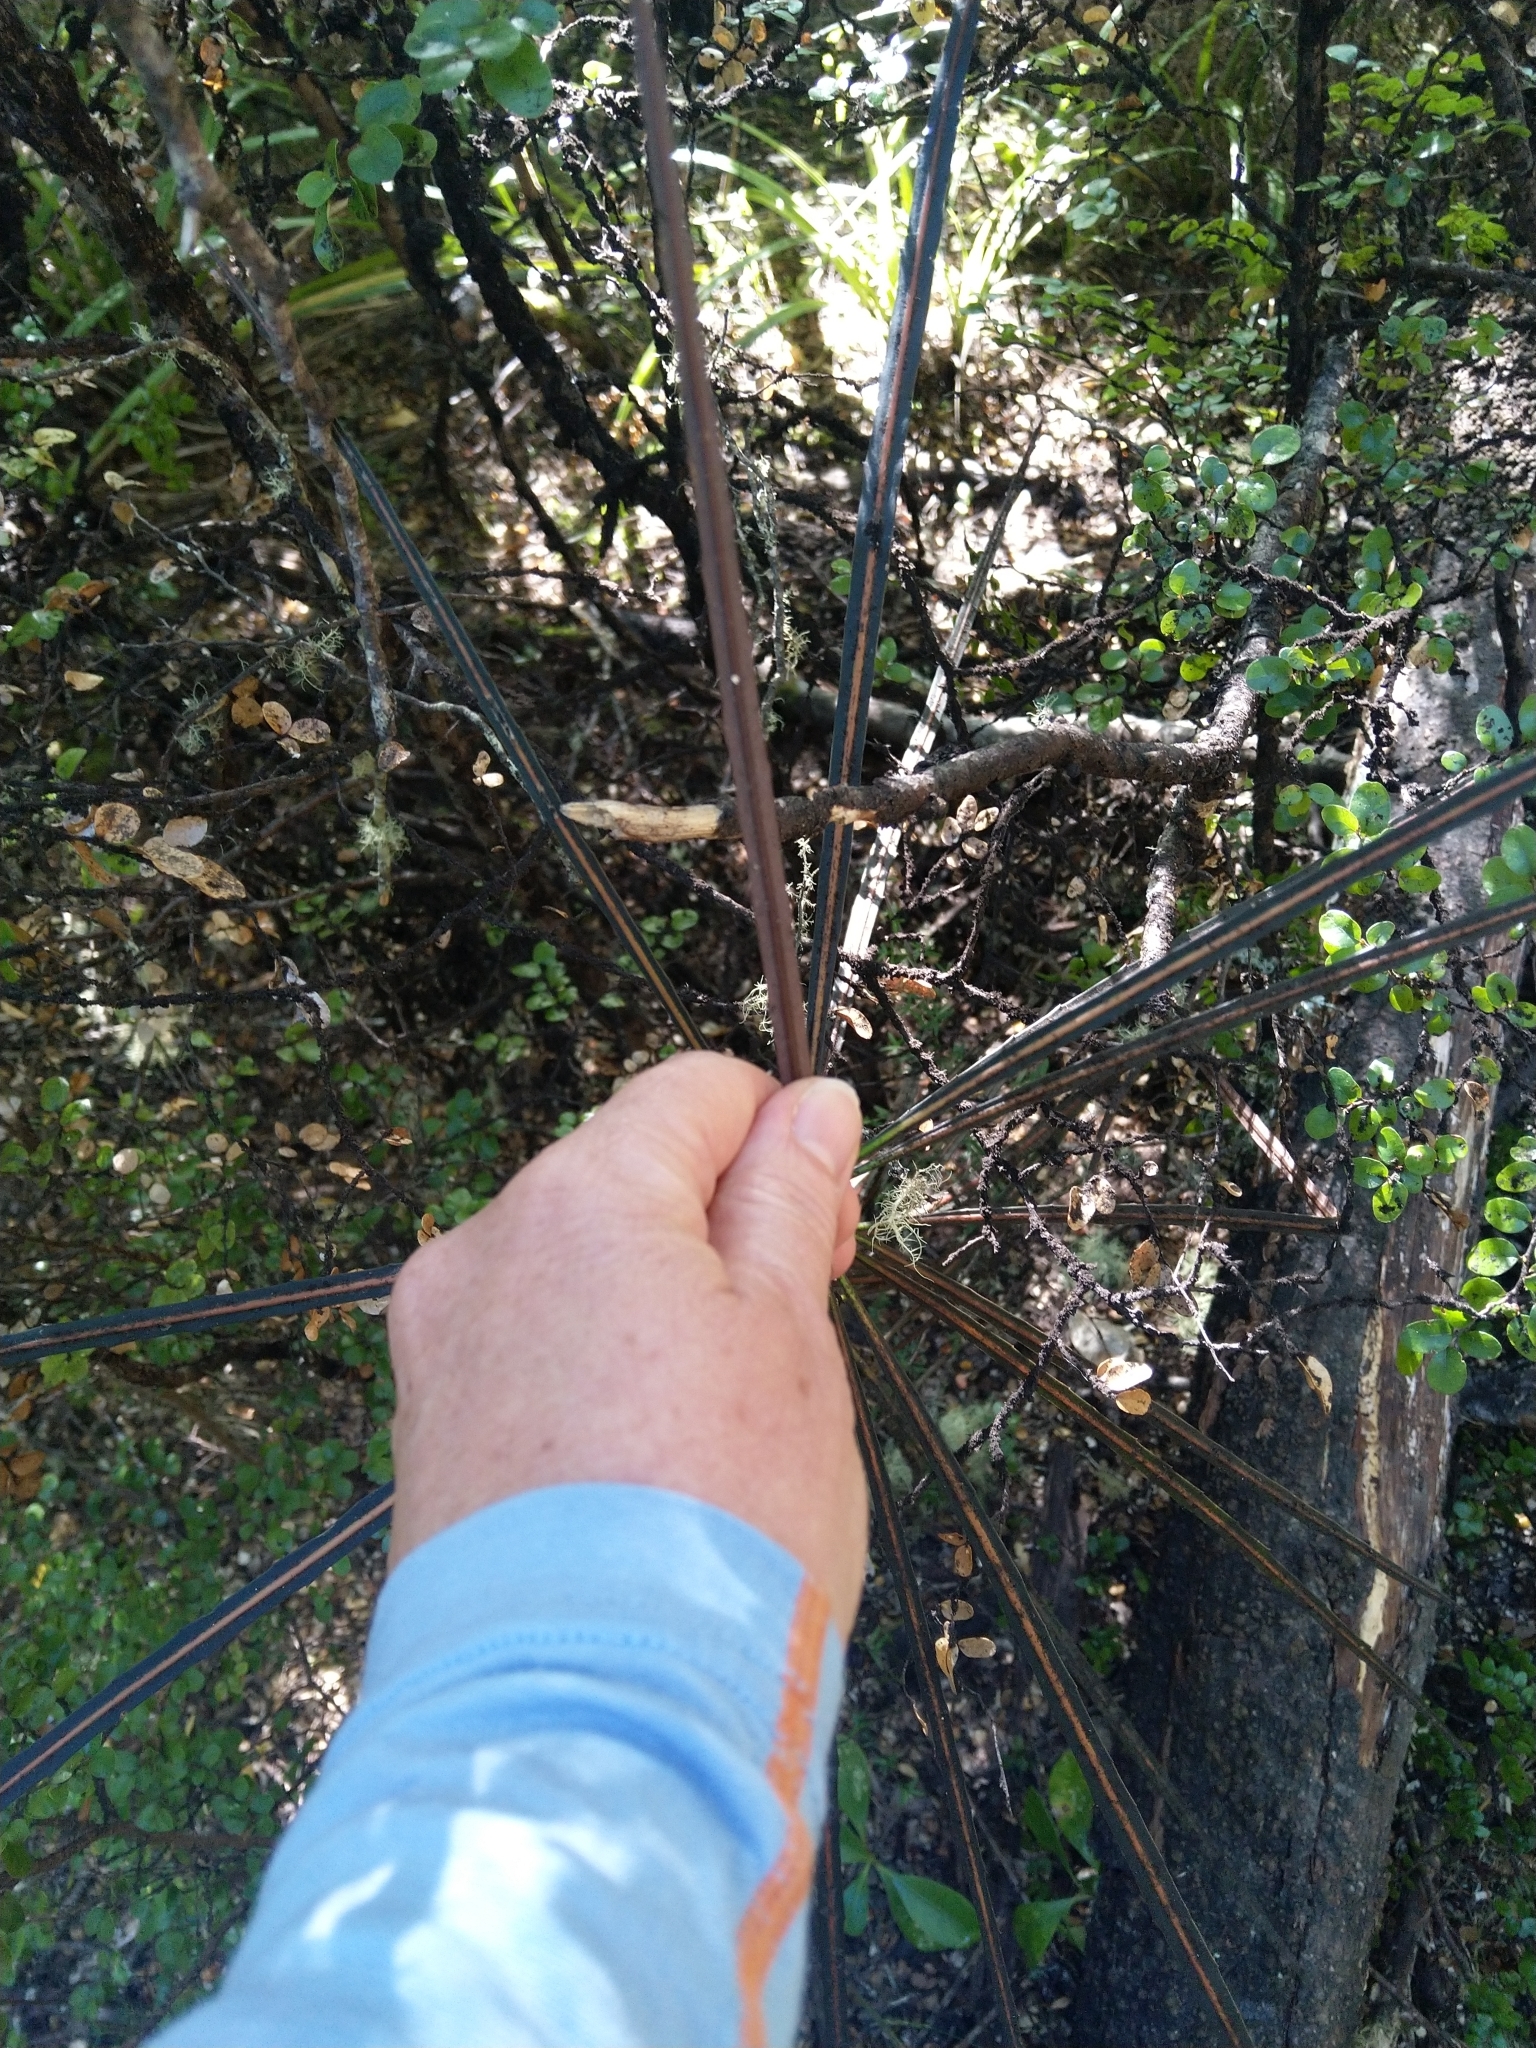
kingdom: Plantae
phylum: Tracheophyta
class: Magnoliopsida
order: Apiales
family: Araliaceae
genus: Pseudopanax
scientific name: Pseudopanax crassifolius
